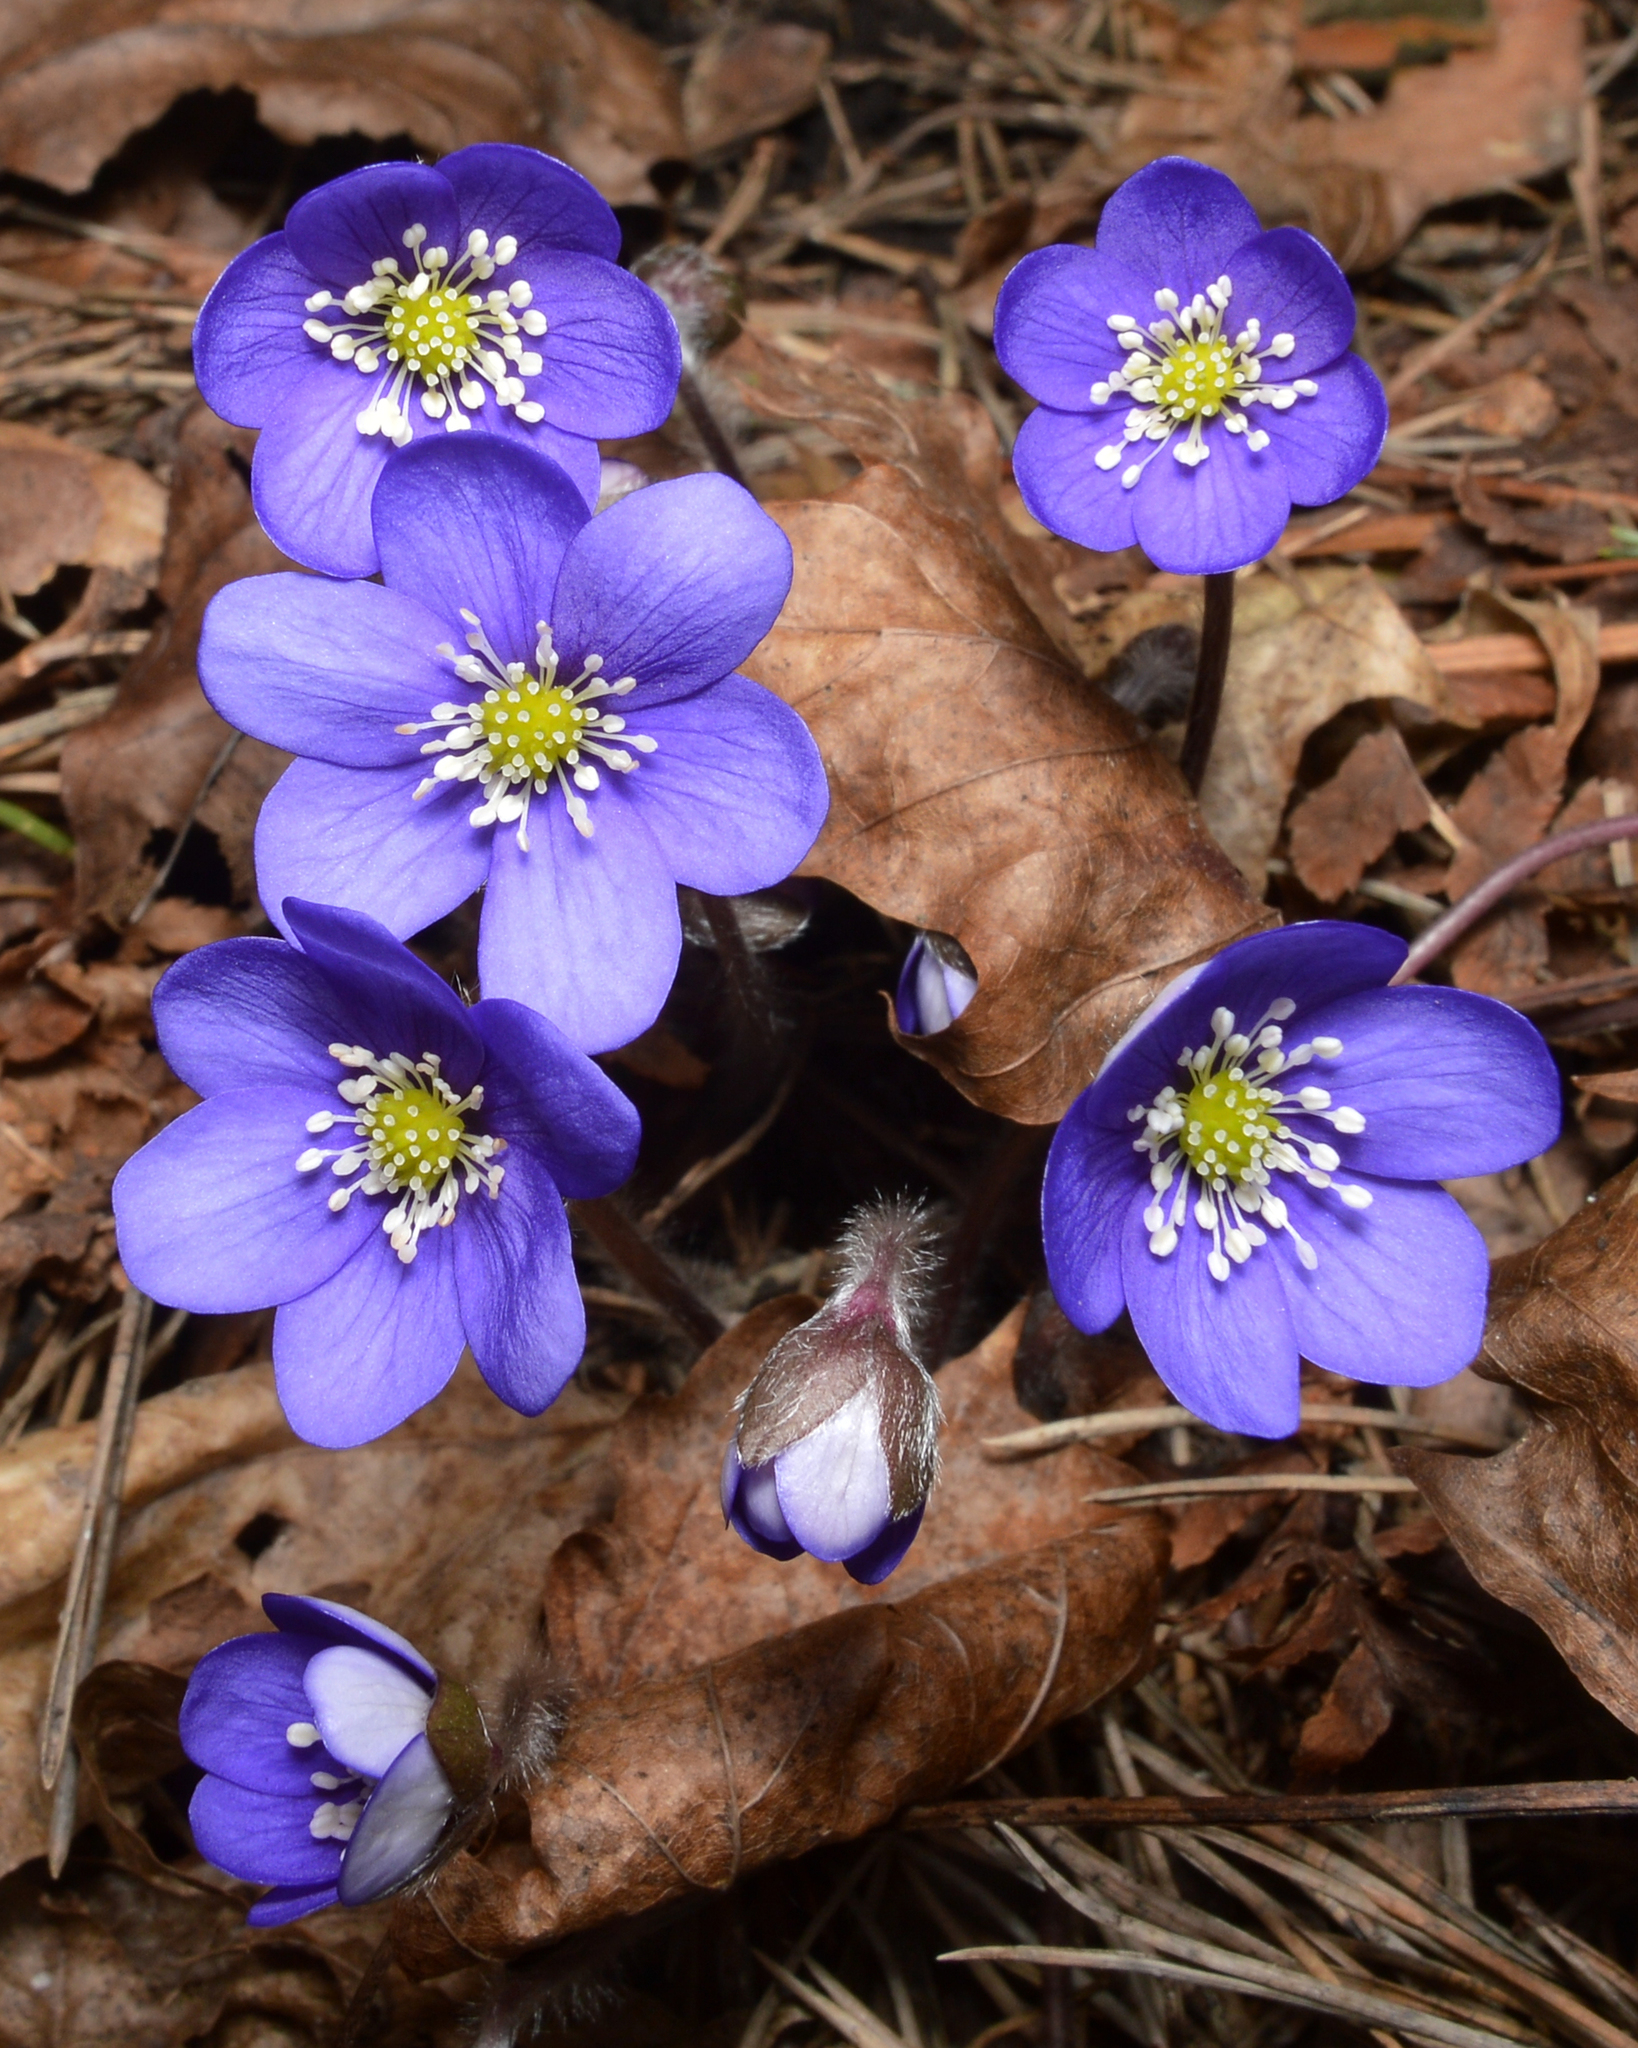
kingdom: Plantae
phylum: Tracheophyta
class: Magnoliopsida
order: Ranunculales
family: Ranunculaceae
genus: Hepatica
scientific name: Hepatica nobilis
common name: Liverleaf
